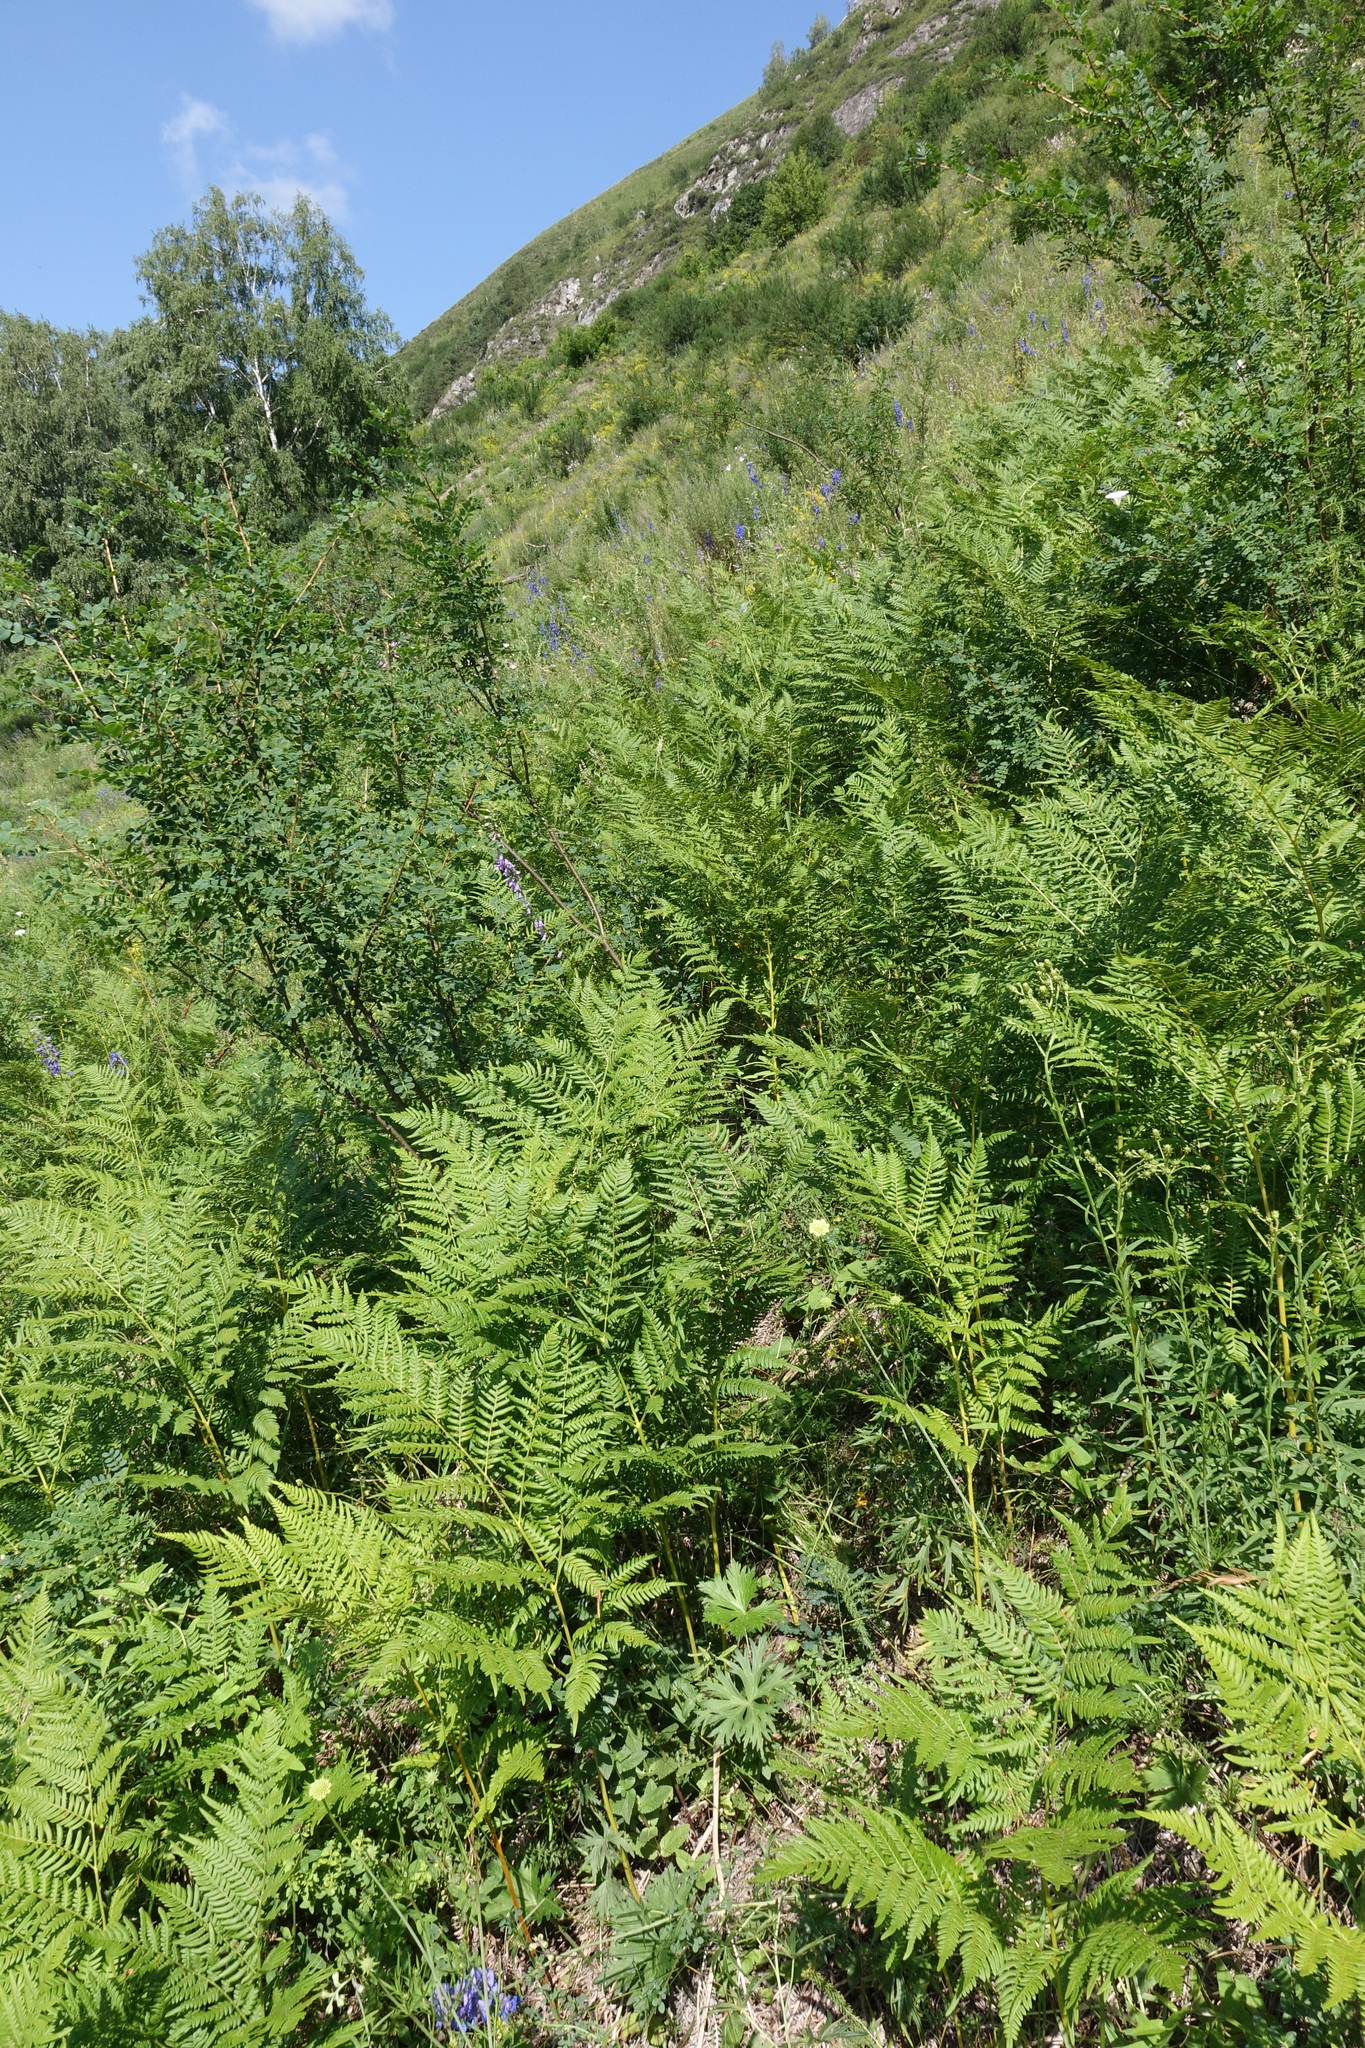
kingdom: Plantae
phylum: Tracheophyta
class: Polypodiopsida
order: Polypodiales
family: Dennstaedtiaceae
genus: Pteridium
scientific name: Pteridium aquilinum
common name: Bracken
